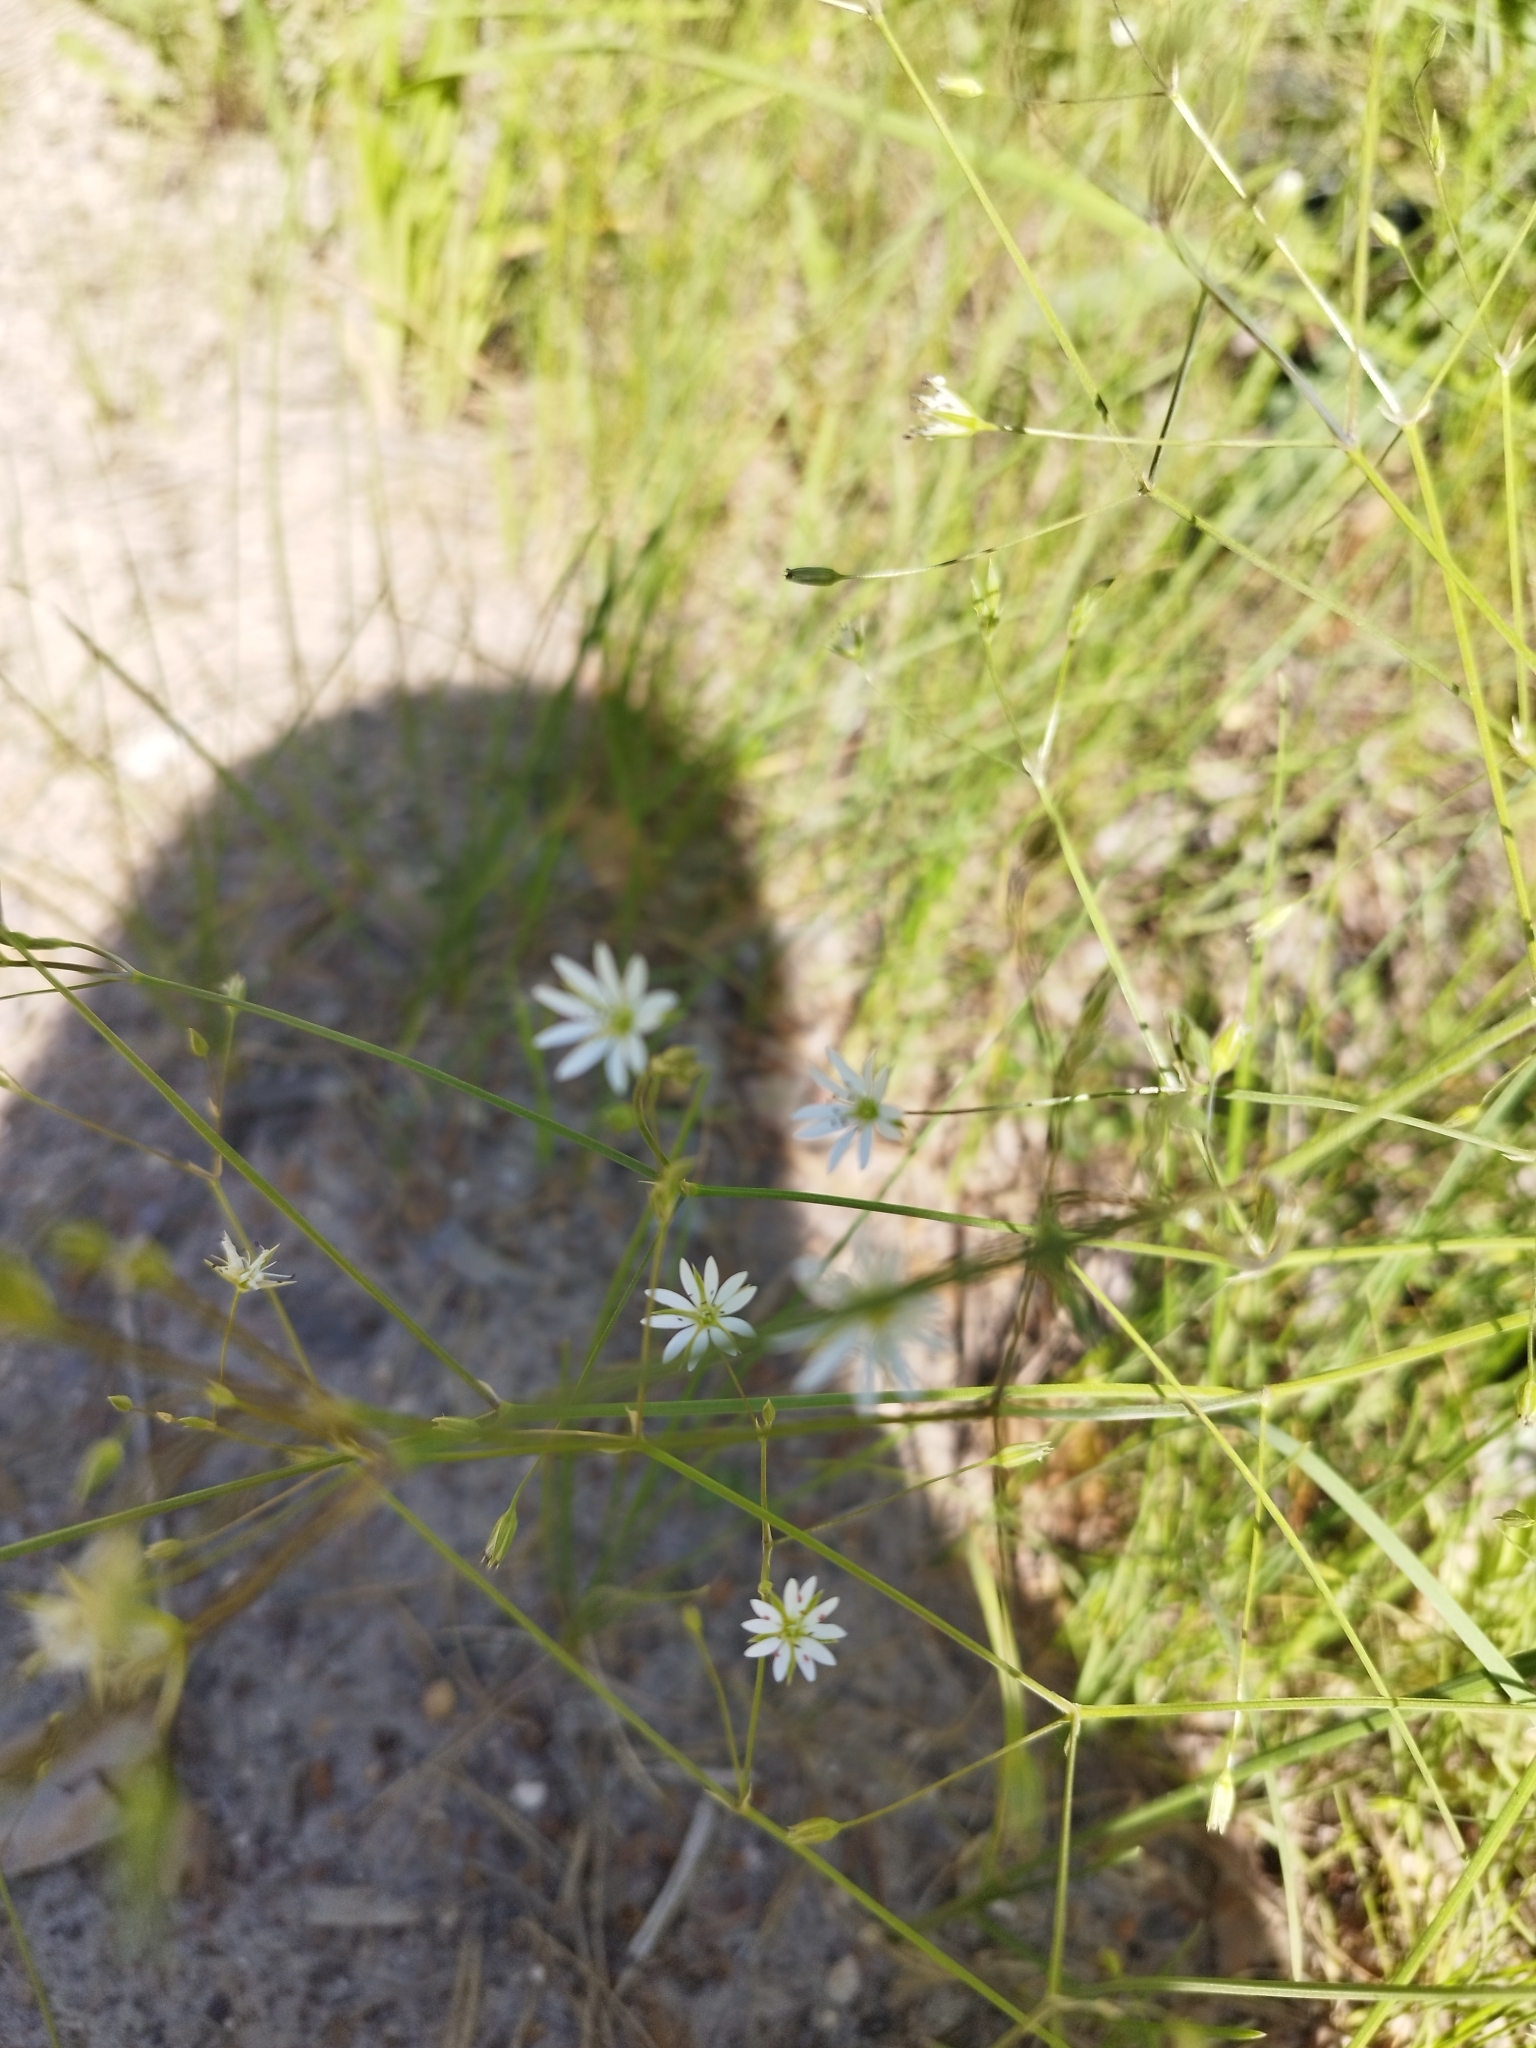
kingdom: Plantae
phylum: Tracheophyta
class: Magnoliopsida
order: Caryophyllales
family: Caryophyllaceae
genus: Stellaria
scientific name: Stellaria graminea
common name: Grass-like starwort
